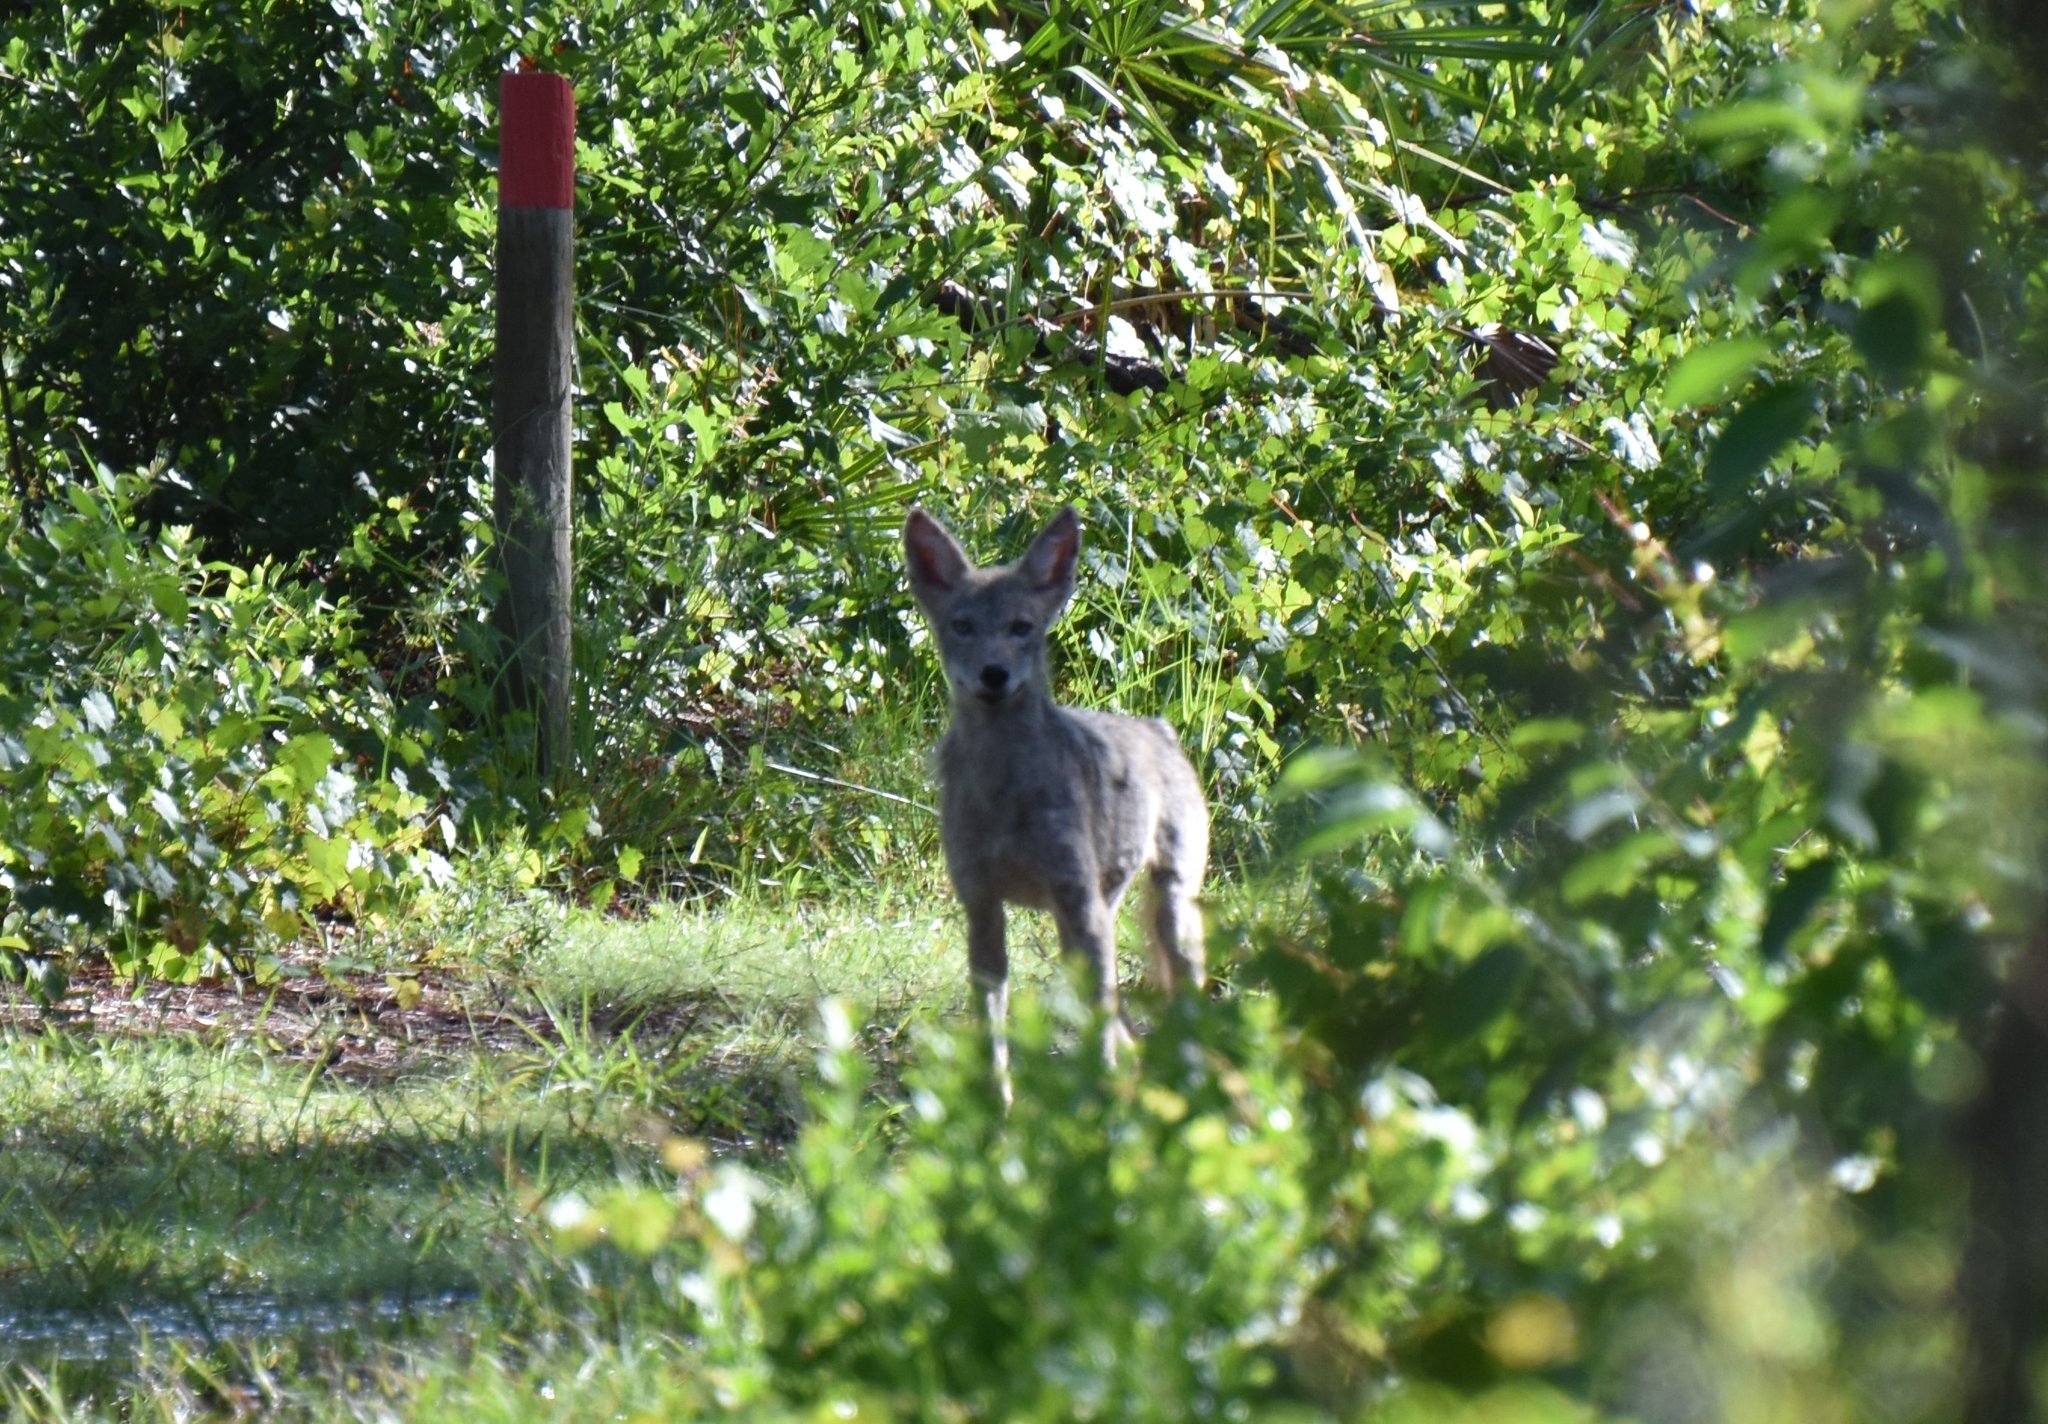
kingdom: Animalia
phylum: Chordata
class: Mammalia
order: Carnivora
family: Canidae
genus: Canis
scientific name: Canis latrans
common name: Coyote
